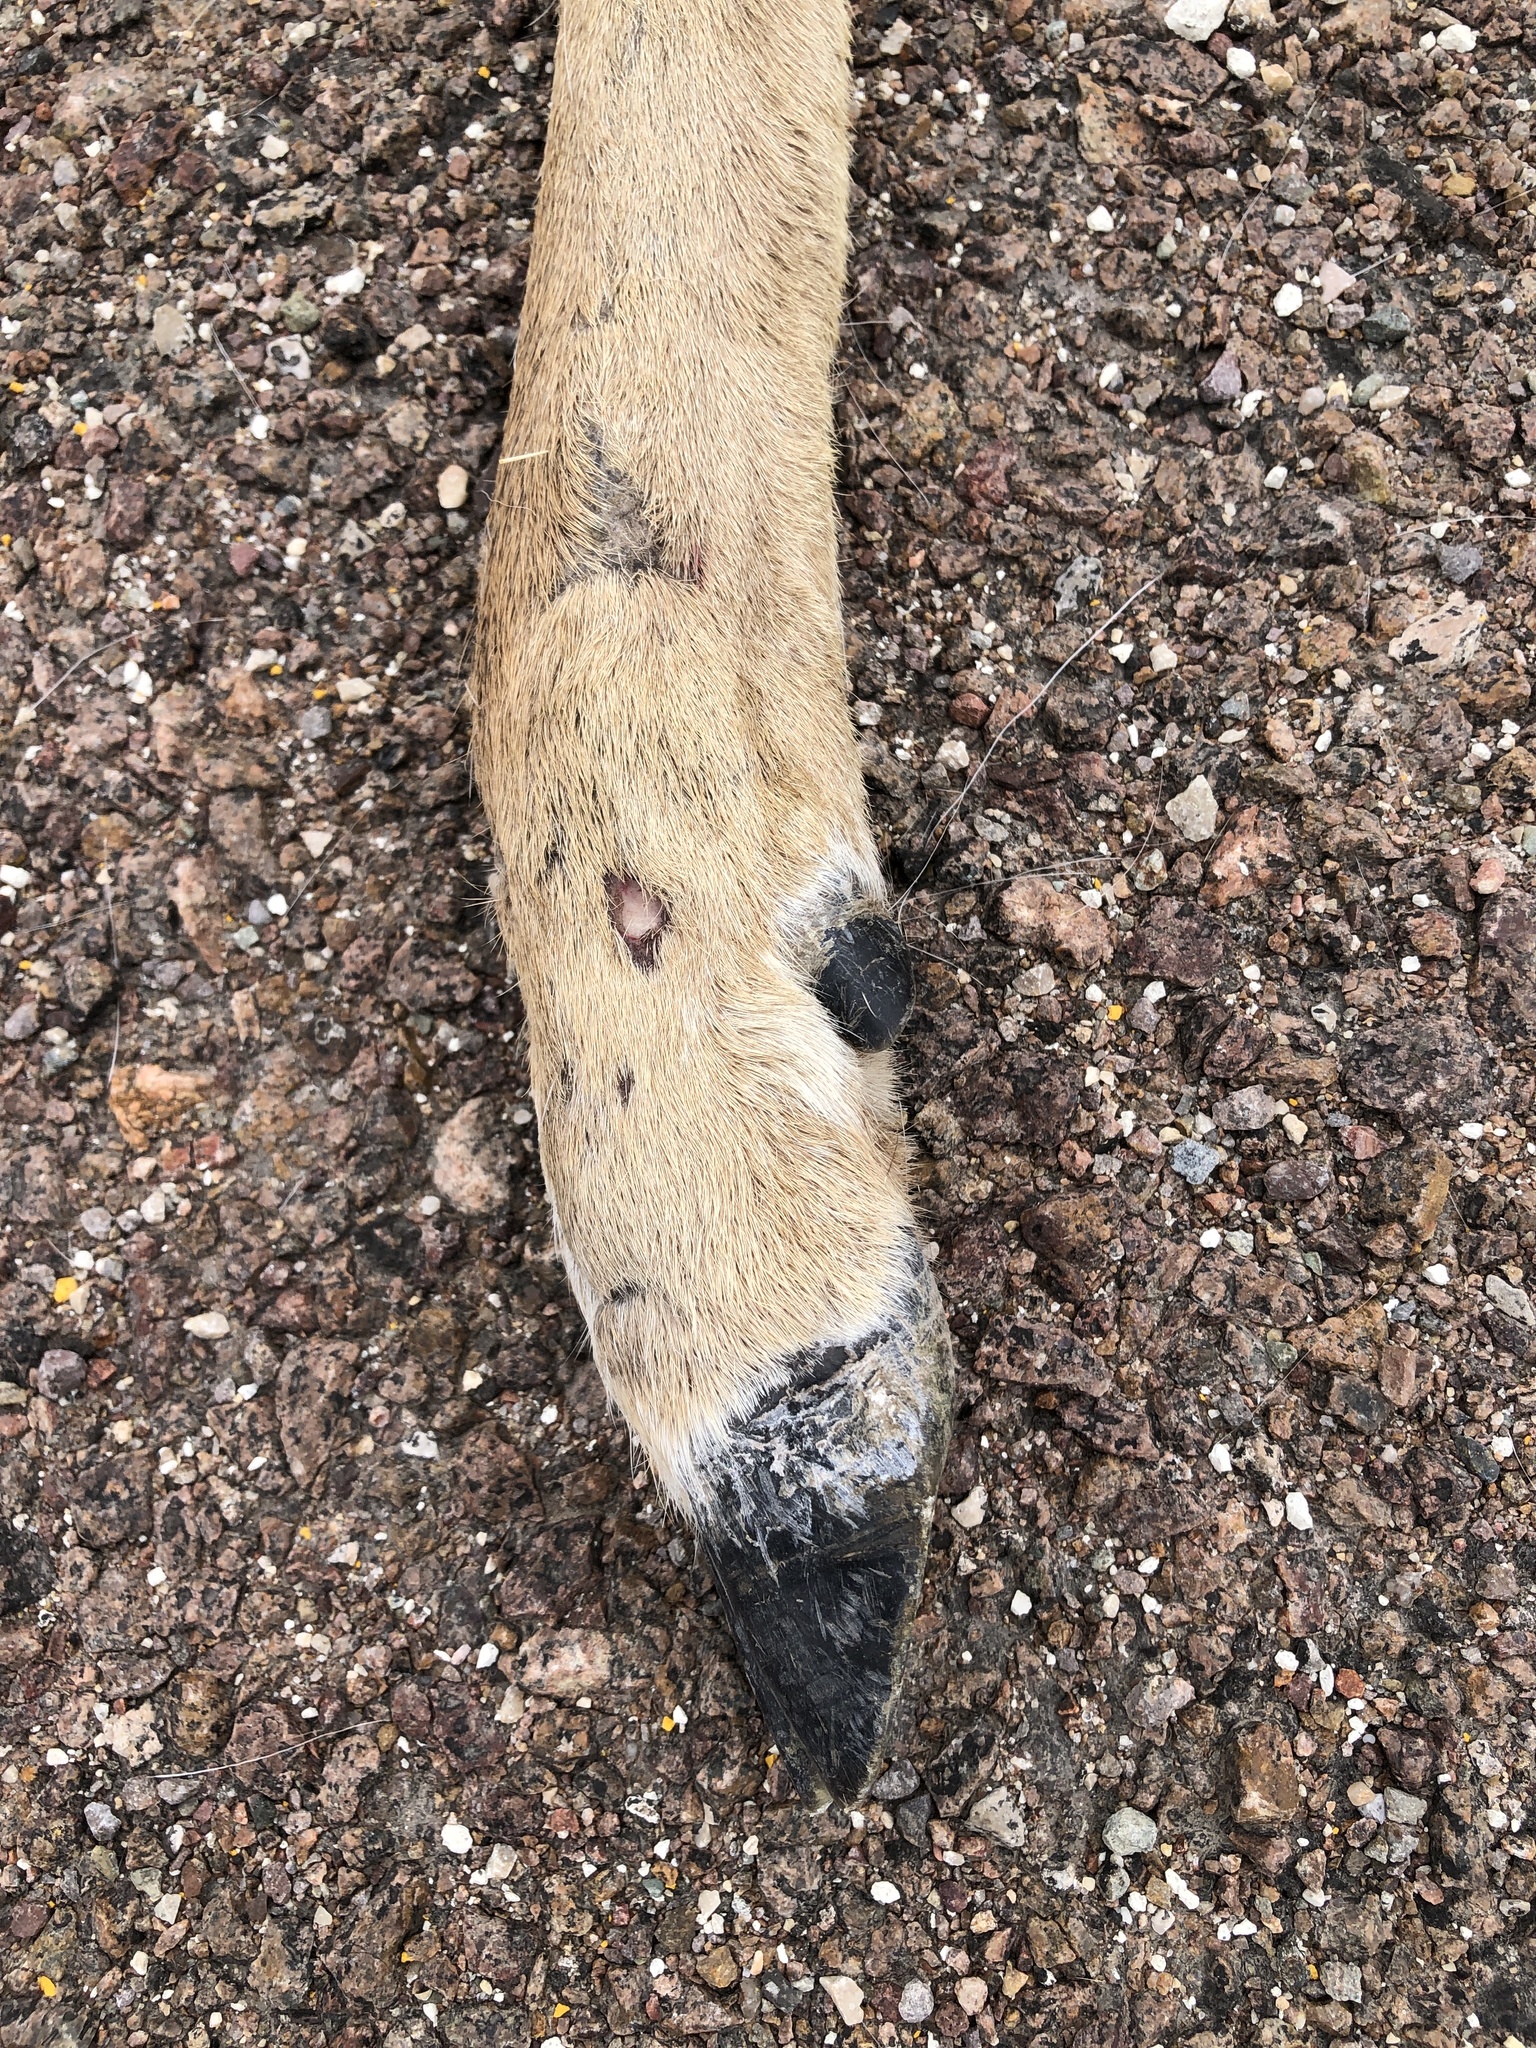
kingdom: Animalia
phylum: Chordata
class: Mammalia
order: Artiodactyla
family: Cervidae
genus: Odocoileus
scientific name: Odocoileus virginianus
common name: White-tailed deer
